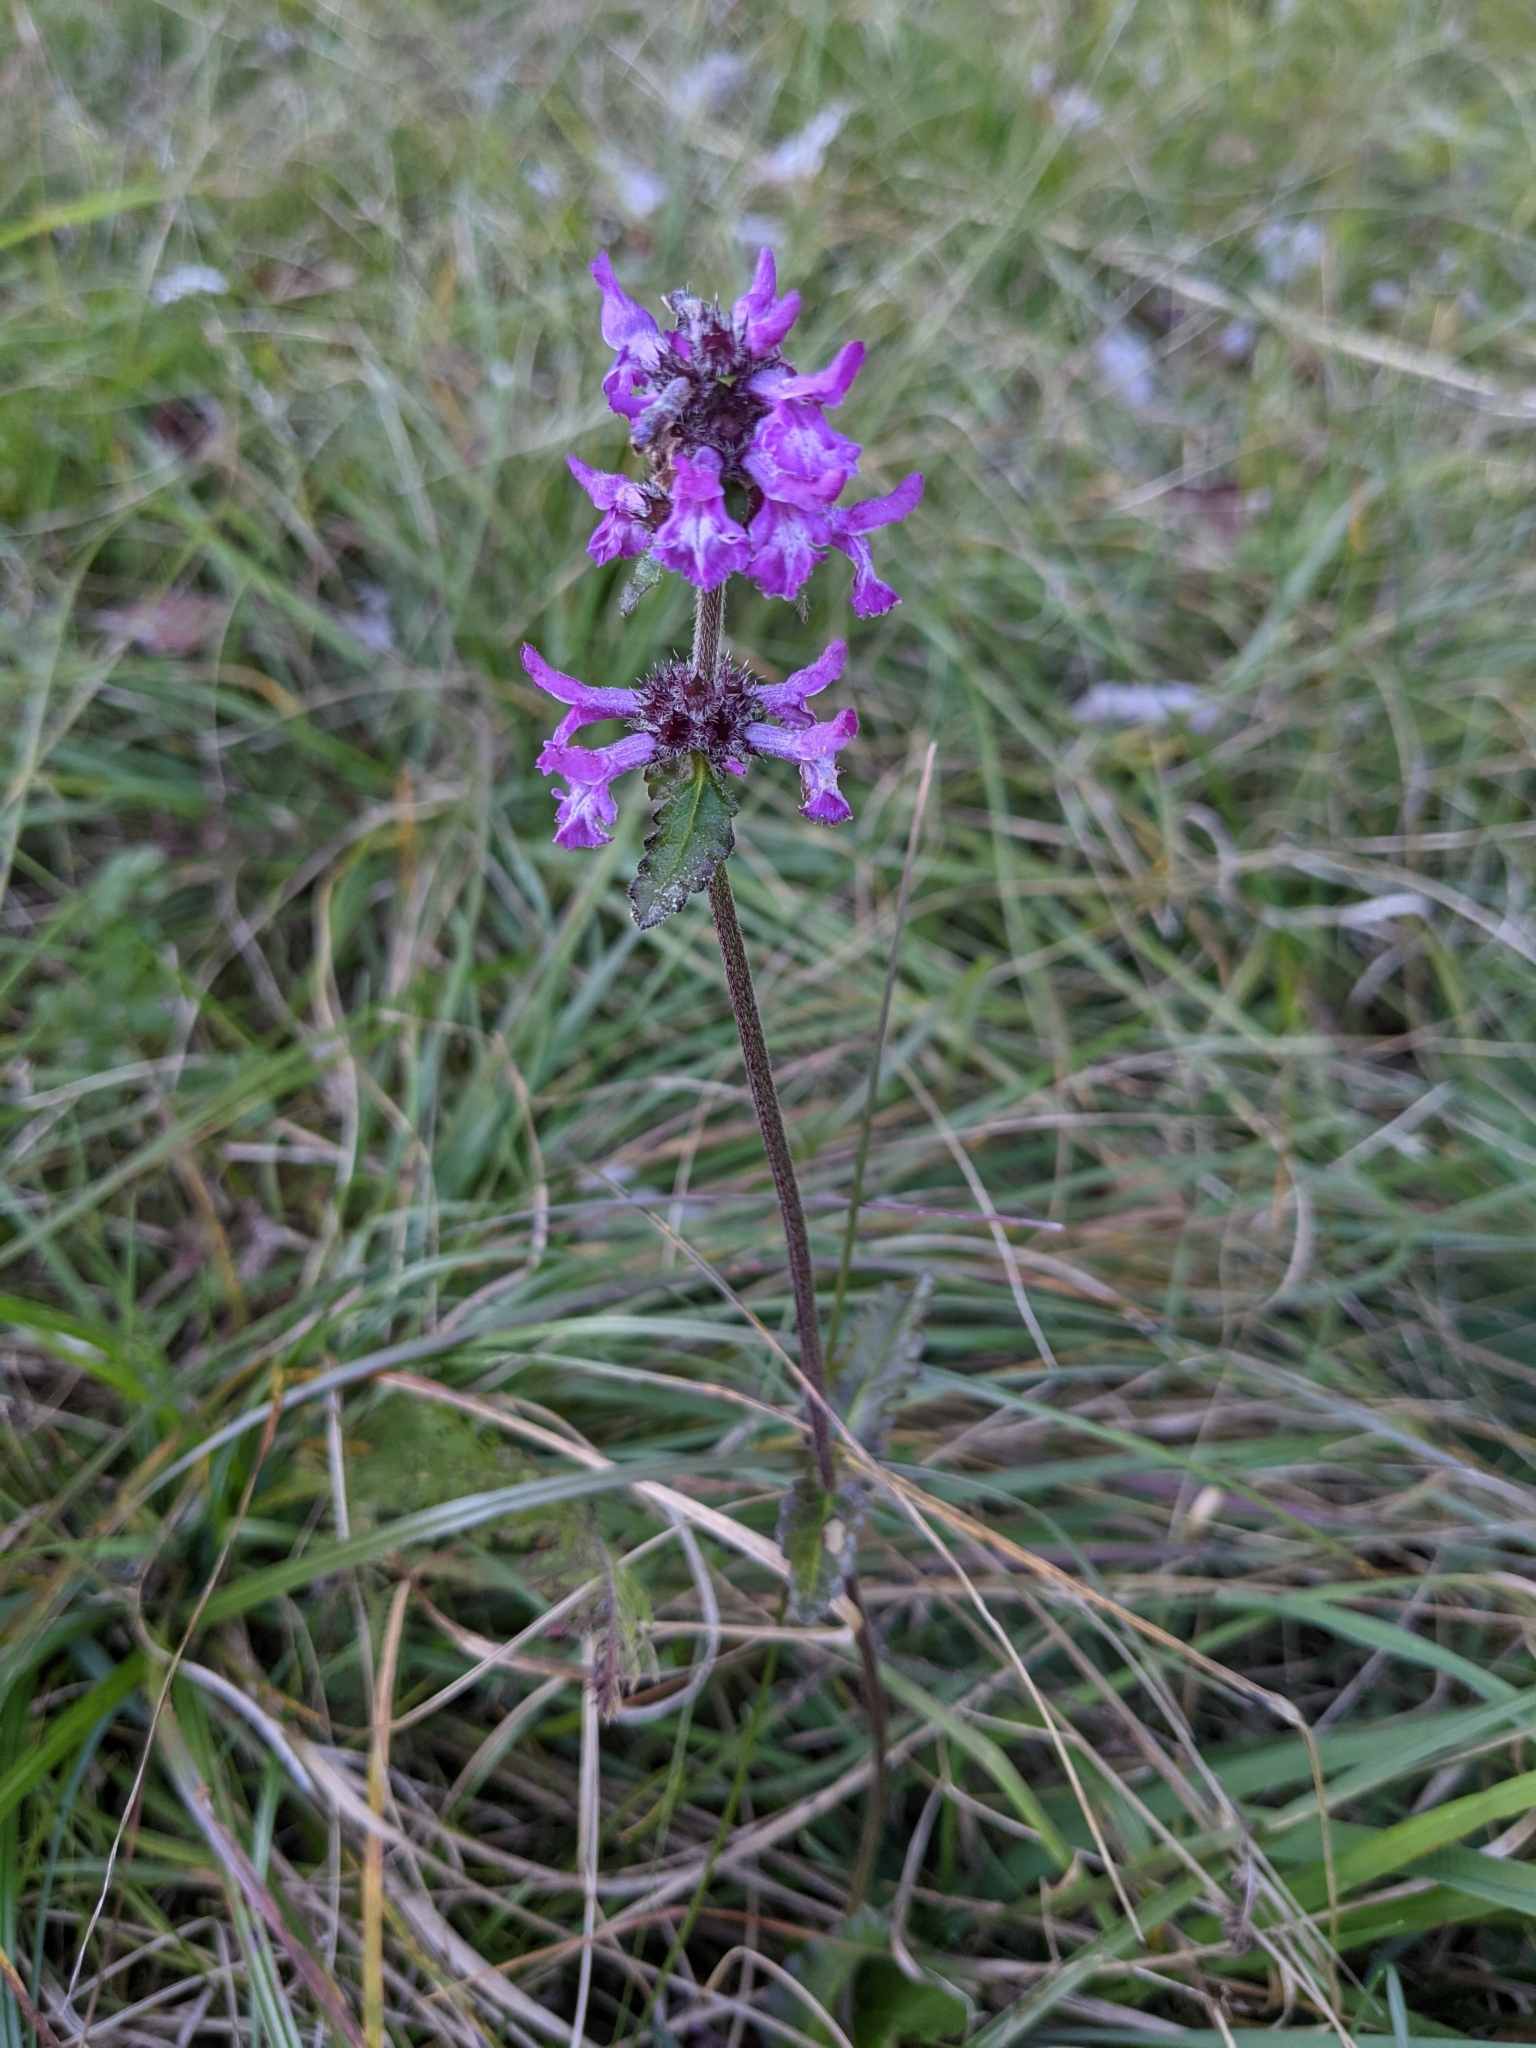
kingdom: Plantae
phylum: Tracheophyta
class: Magnoliopsida
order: Lamiales
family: Lamiaceae
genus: Betonica
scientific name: Betonica officinalis
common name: Bishop's-wort
